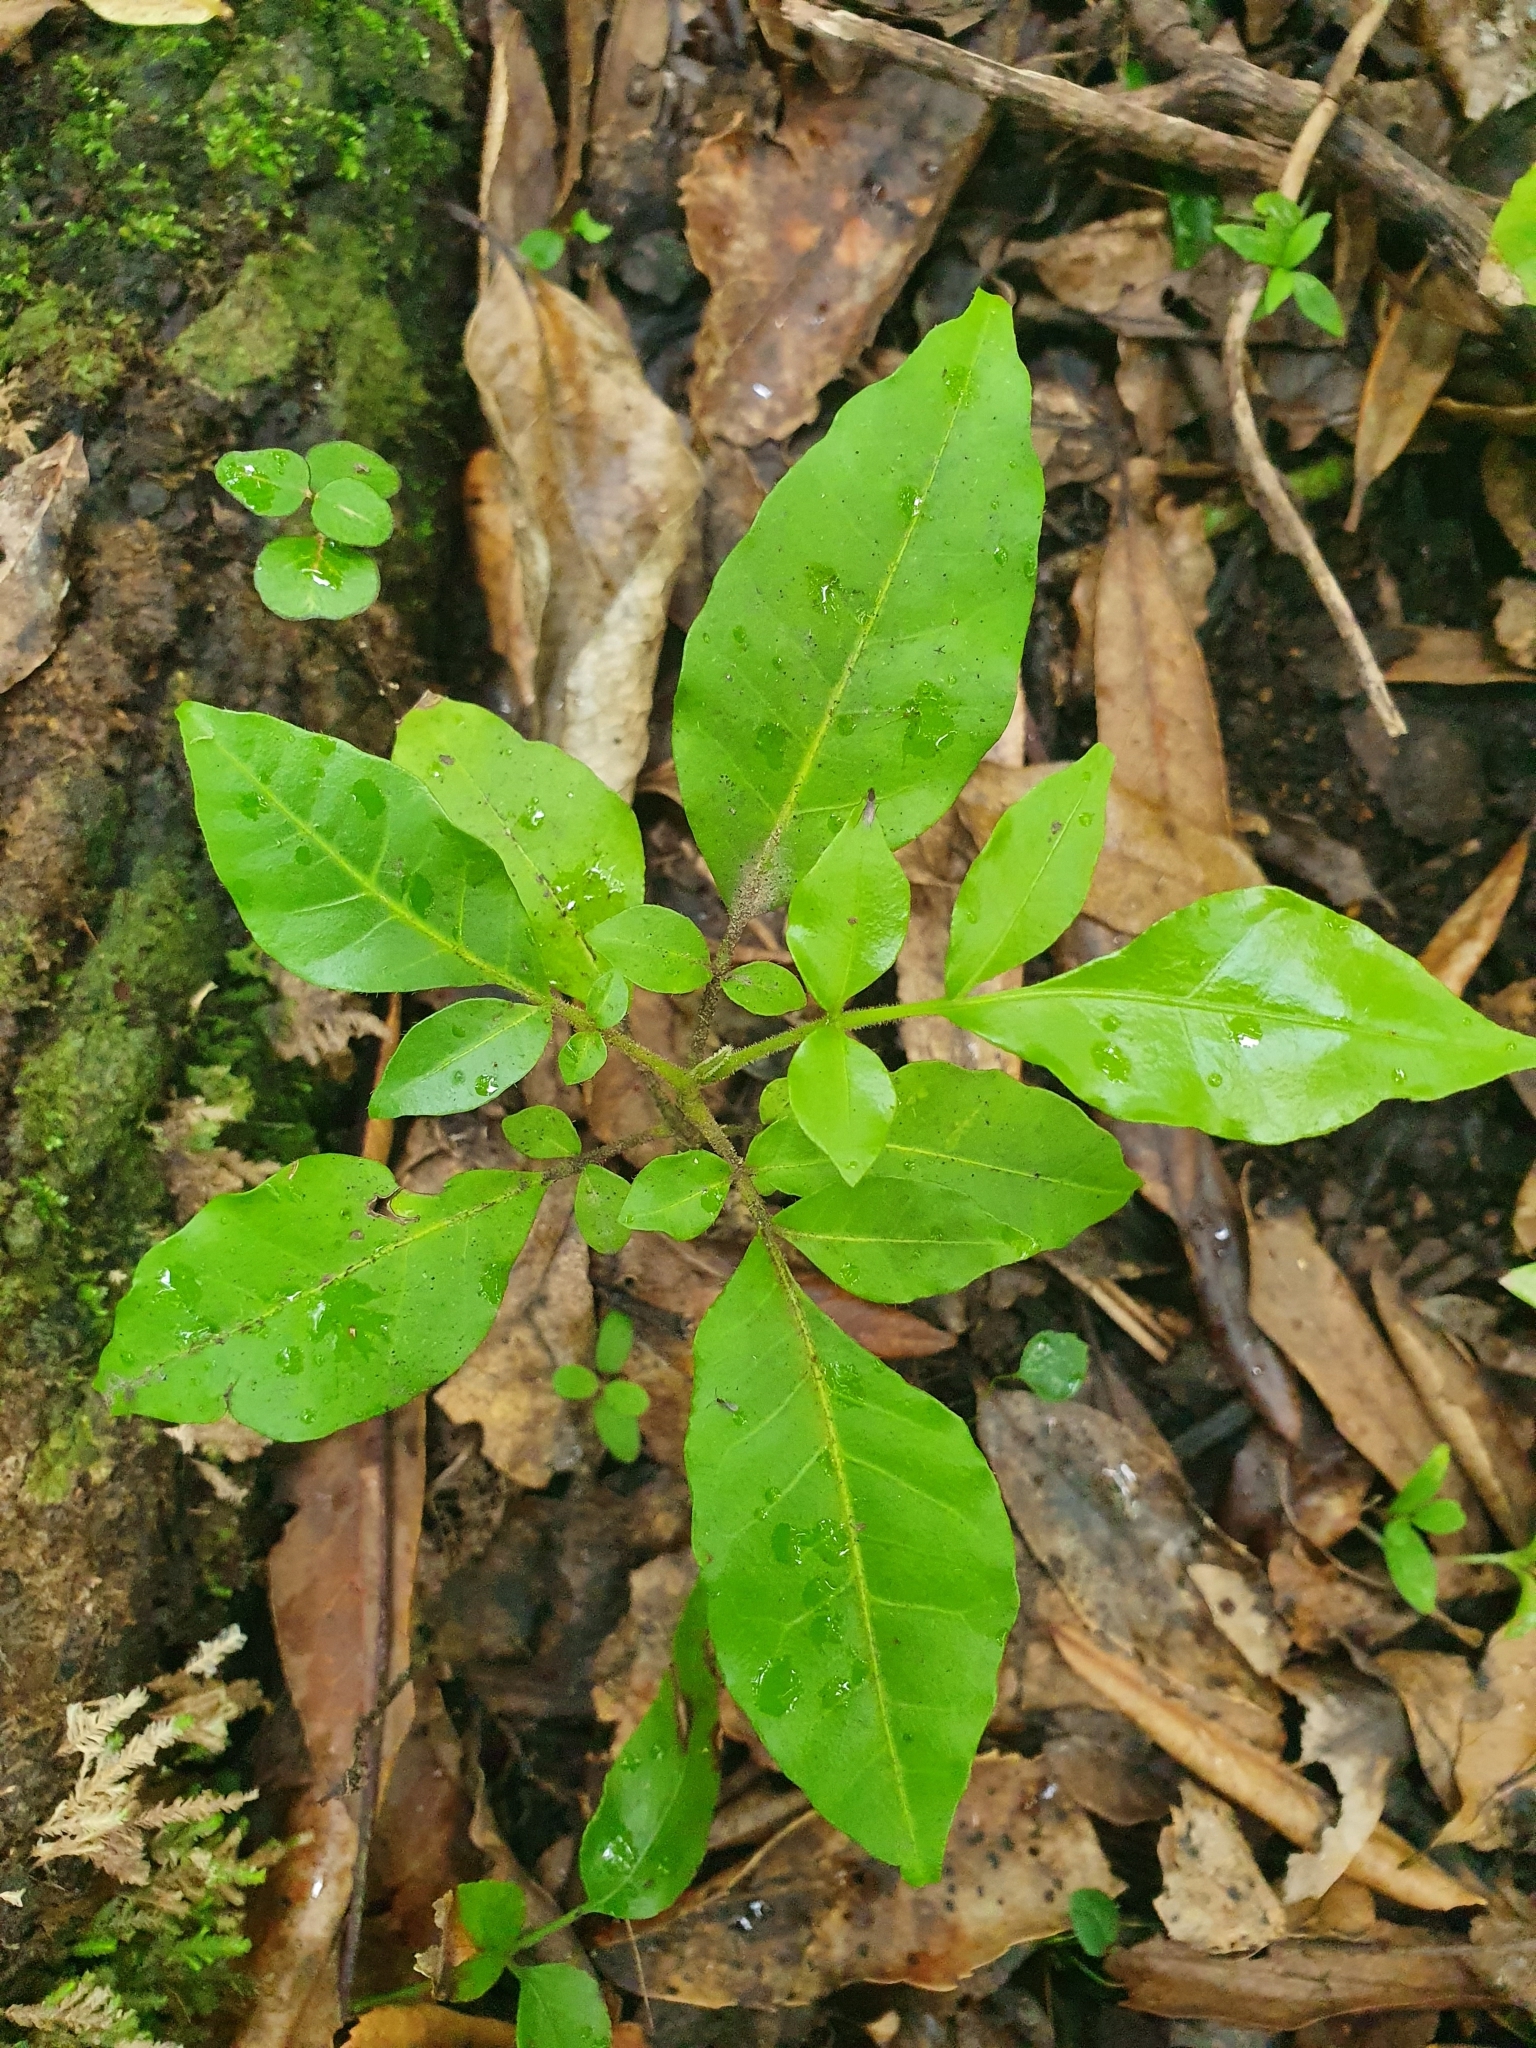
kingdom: Plantae
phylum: Tracheophyta
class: Magnoliopsida
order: Sapindales
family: Meliaceae
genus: Didymocheton
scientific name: Didymocheton spectabilis
